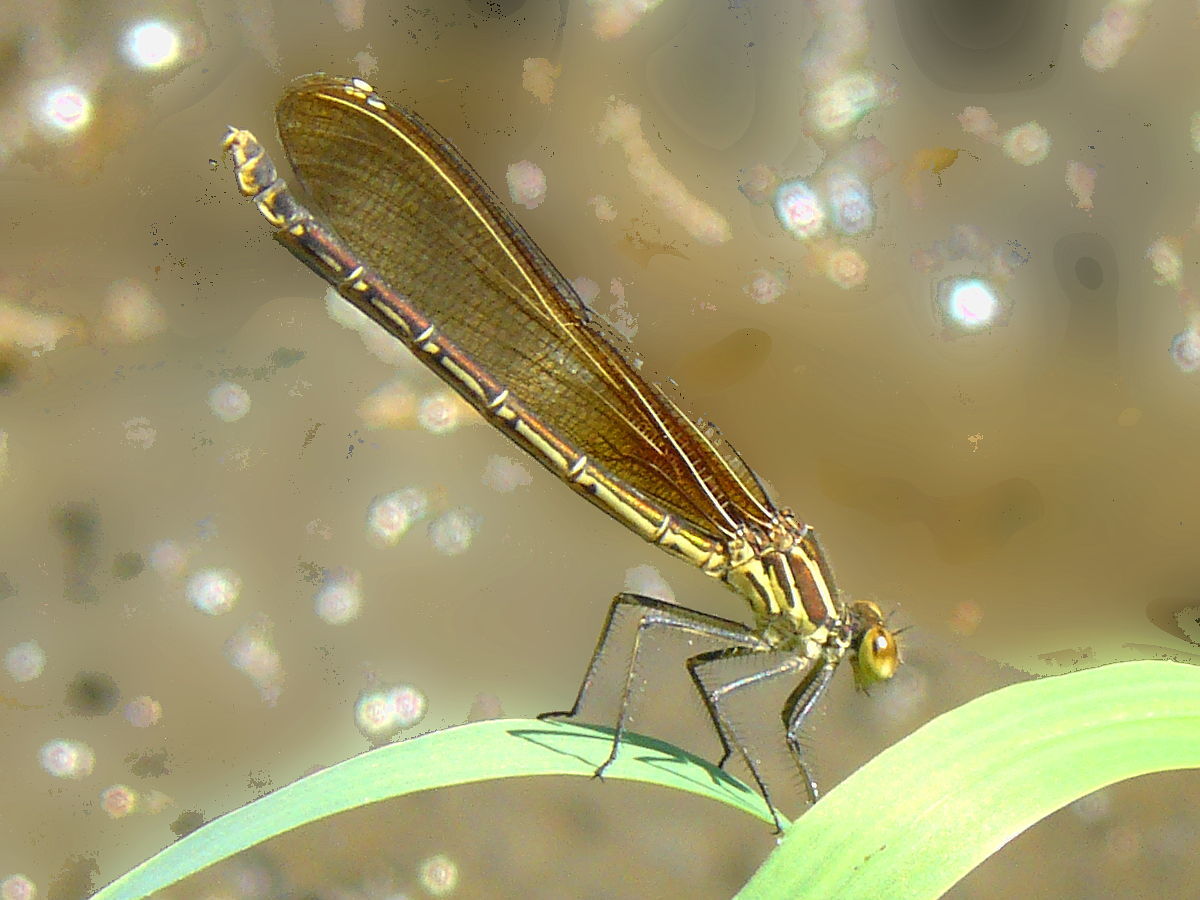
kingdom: Animalia
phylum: Arthropoda
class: Insecta
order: Odonata
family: Calopterygidae
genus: Hetaerina
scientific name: Hetaerina americana
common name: American rubyspot
